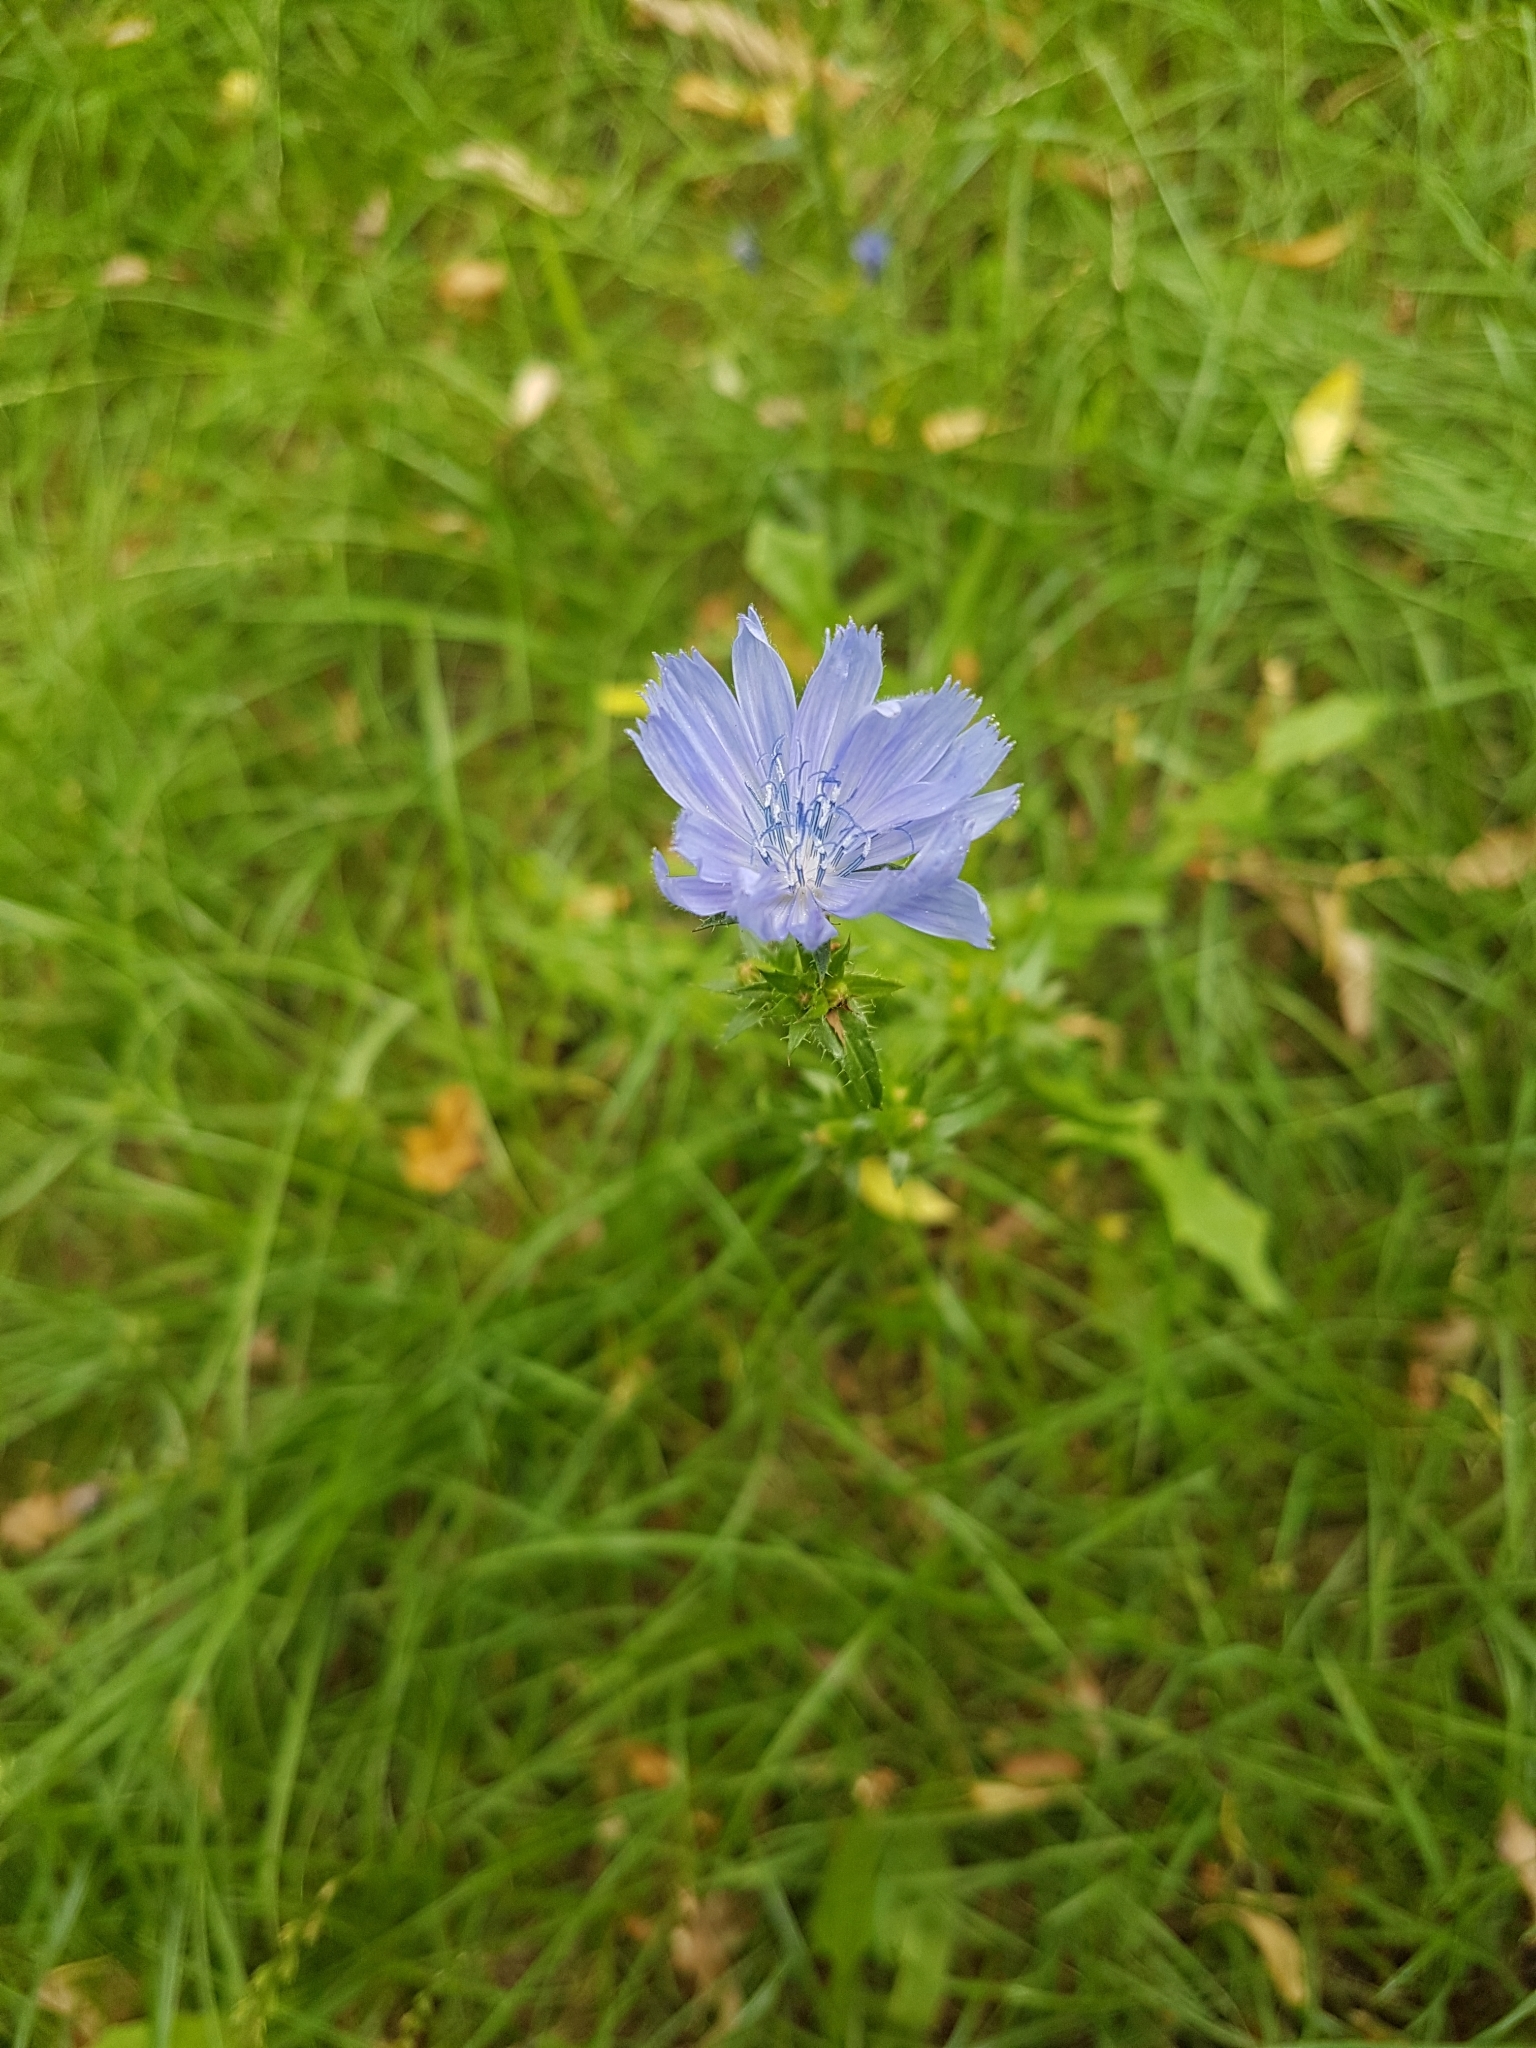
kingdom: Plantae
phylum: Tracheophyta
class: Magnoliopsida
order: Asterales
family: Asteraceae
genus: Cichorium
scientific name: Cichorium intybus
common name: Chicory
